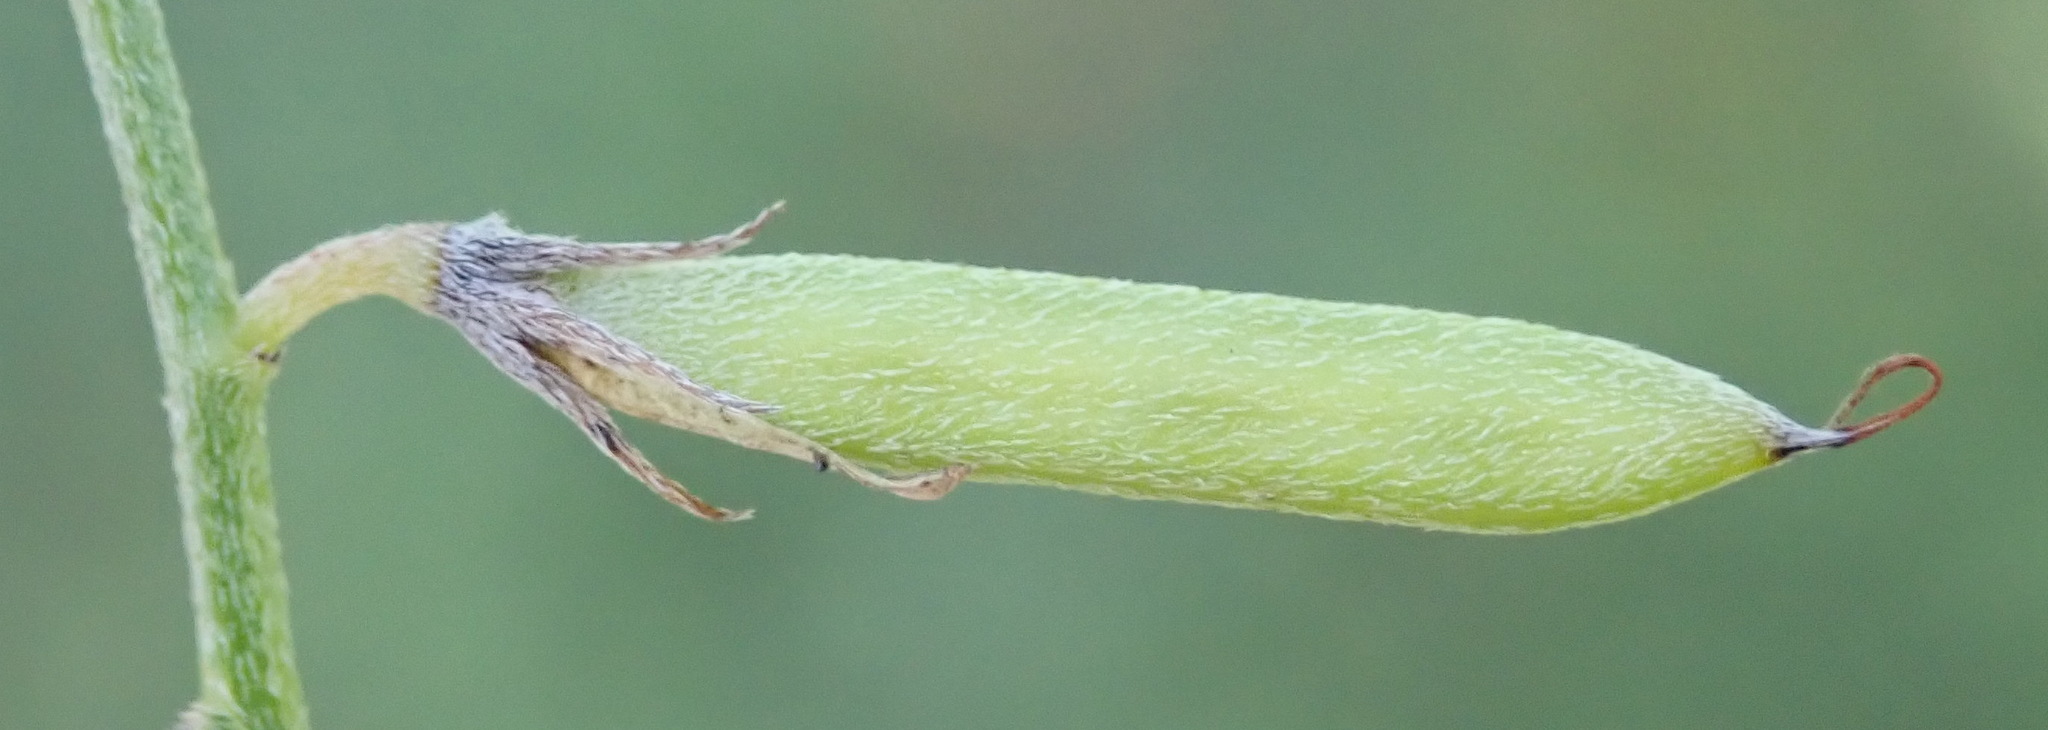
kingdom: Plantae
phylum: Tracheophyta
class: Magnoliopsida
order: Fabales
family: Fabaceae
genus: Indigofera
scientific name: Indigofera priorii
